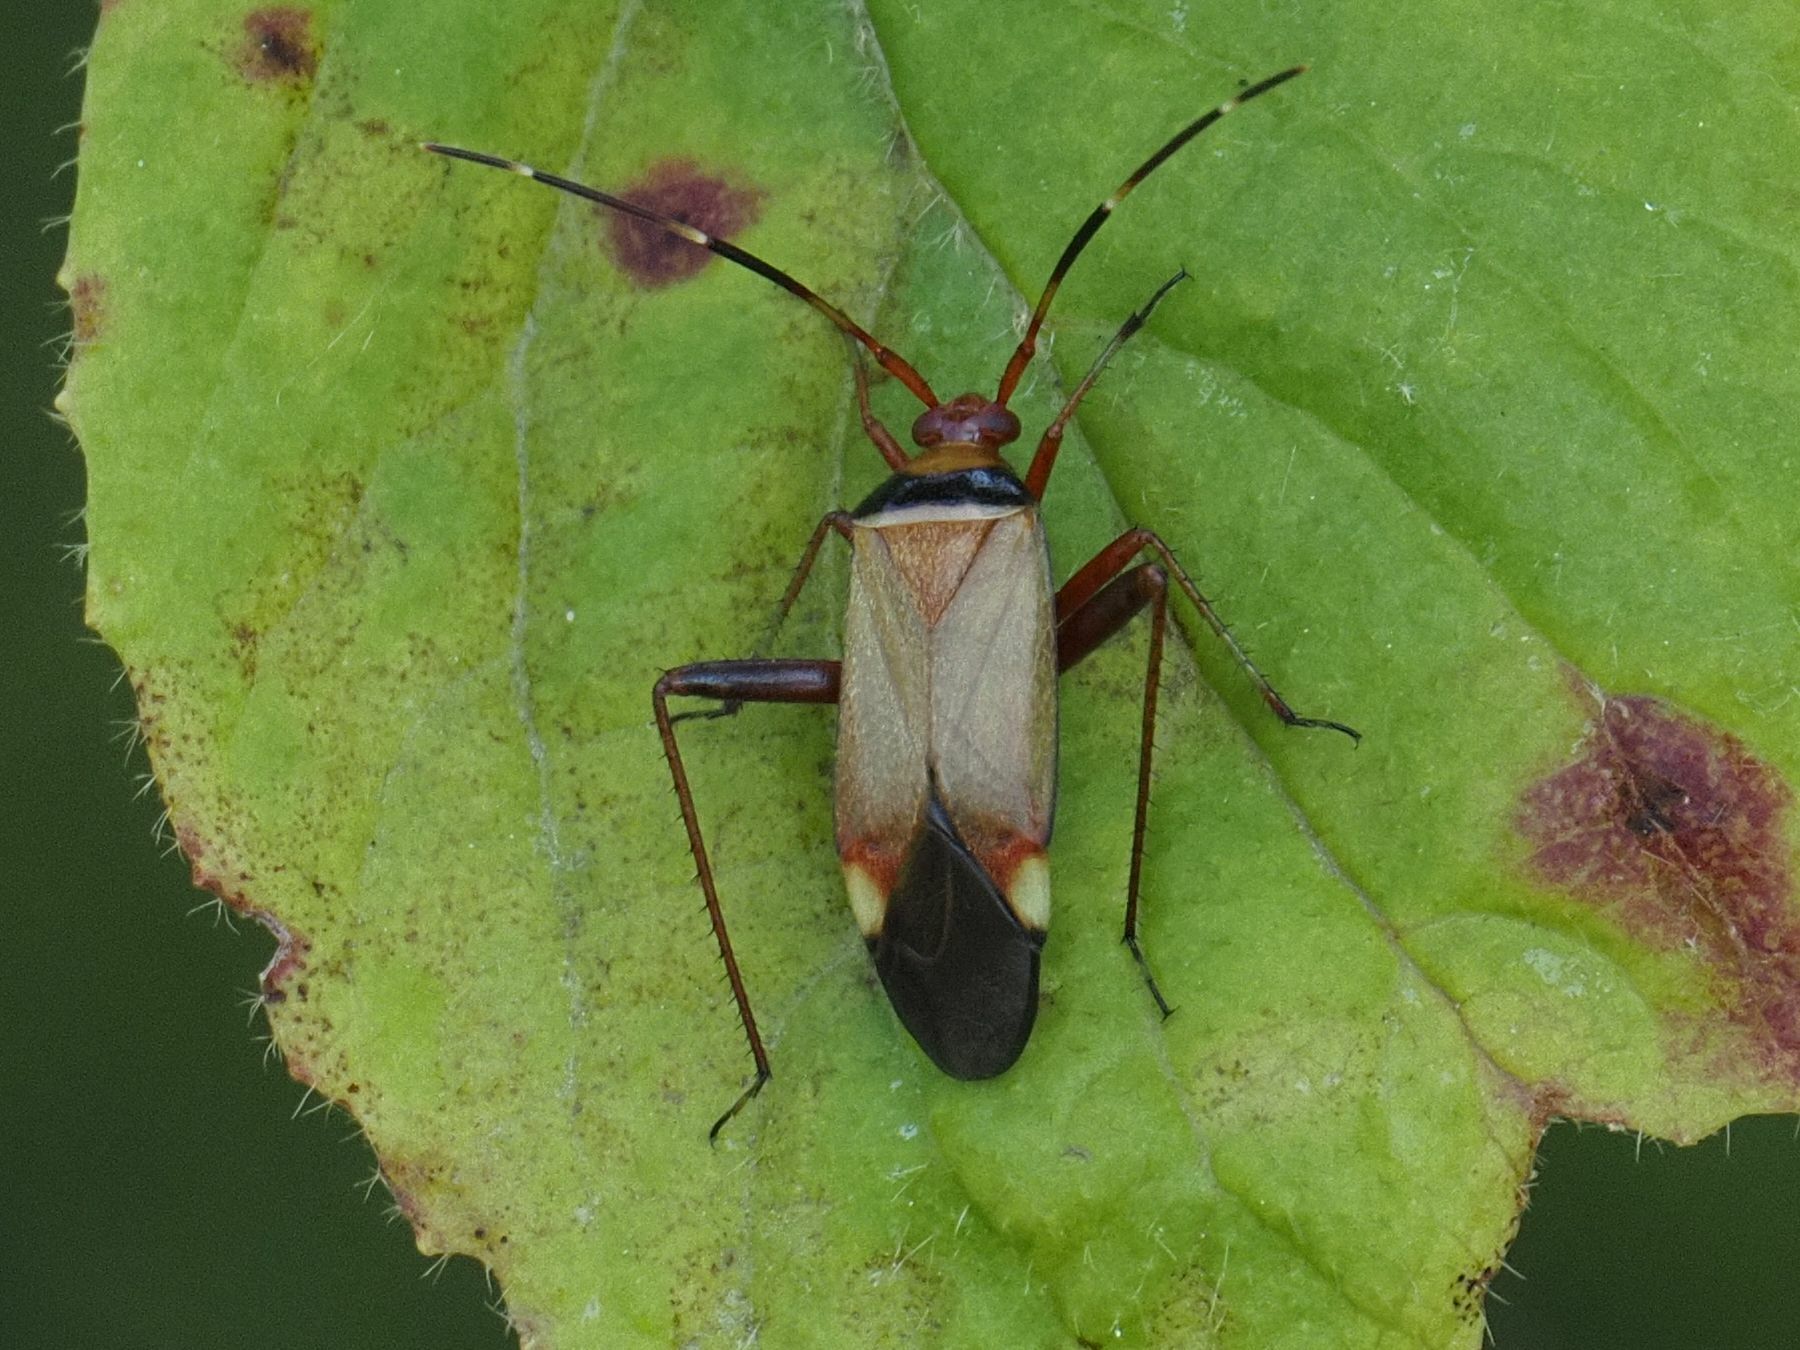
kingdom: Animalia
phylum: Arthropoda
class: Insecta
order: Hemiptera
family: Miridae
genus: Adelphocoris
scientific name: Adelphocoris vandalicus
